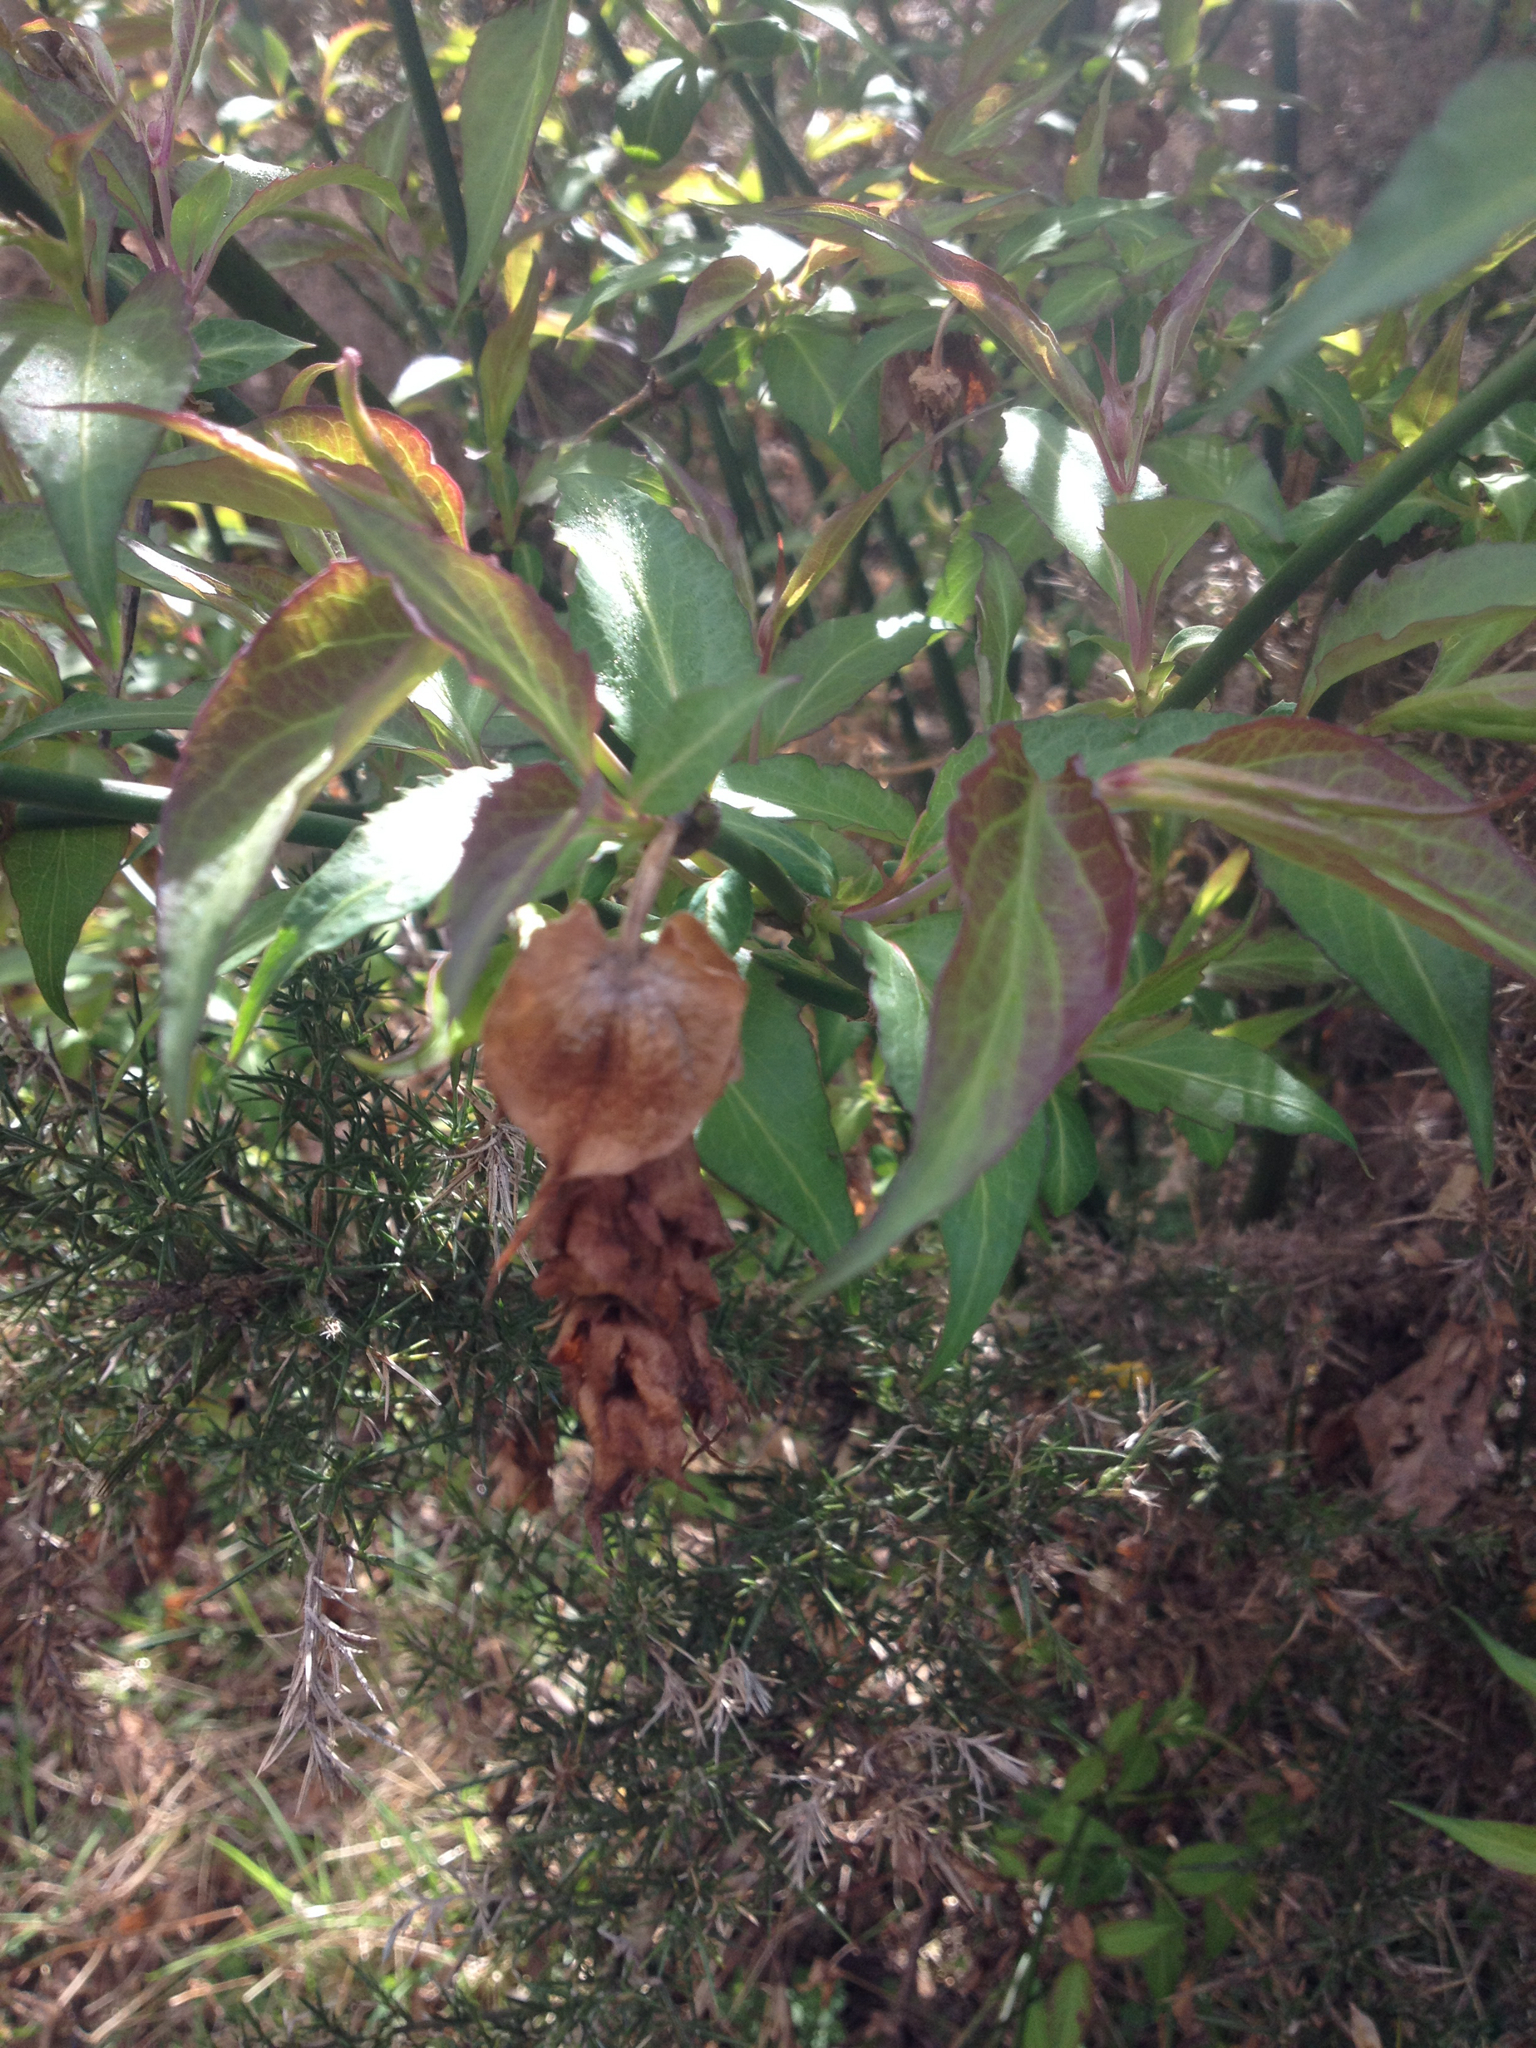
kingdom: Plantae
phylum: Tracheophyta
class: Magnoliopsida
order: Dipsacales
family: Caprifoliaceae
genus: Leycesteria
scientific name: Leycesteria formosa
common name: Himalayan honeysuckle
